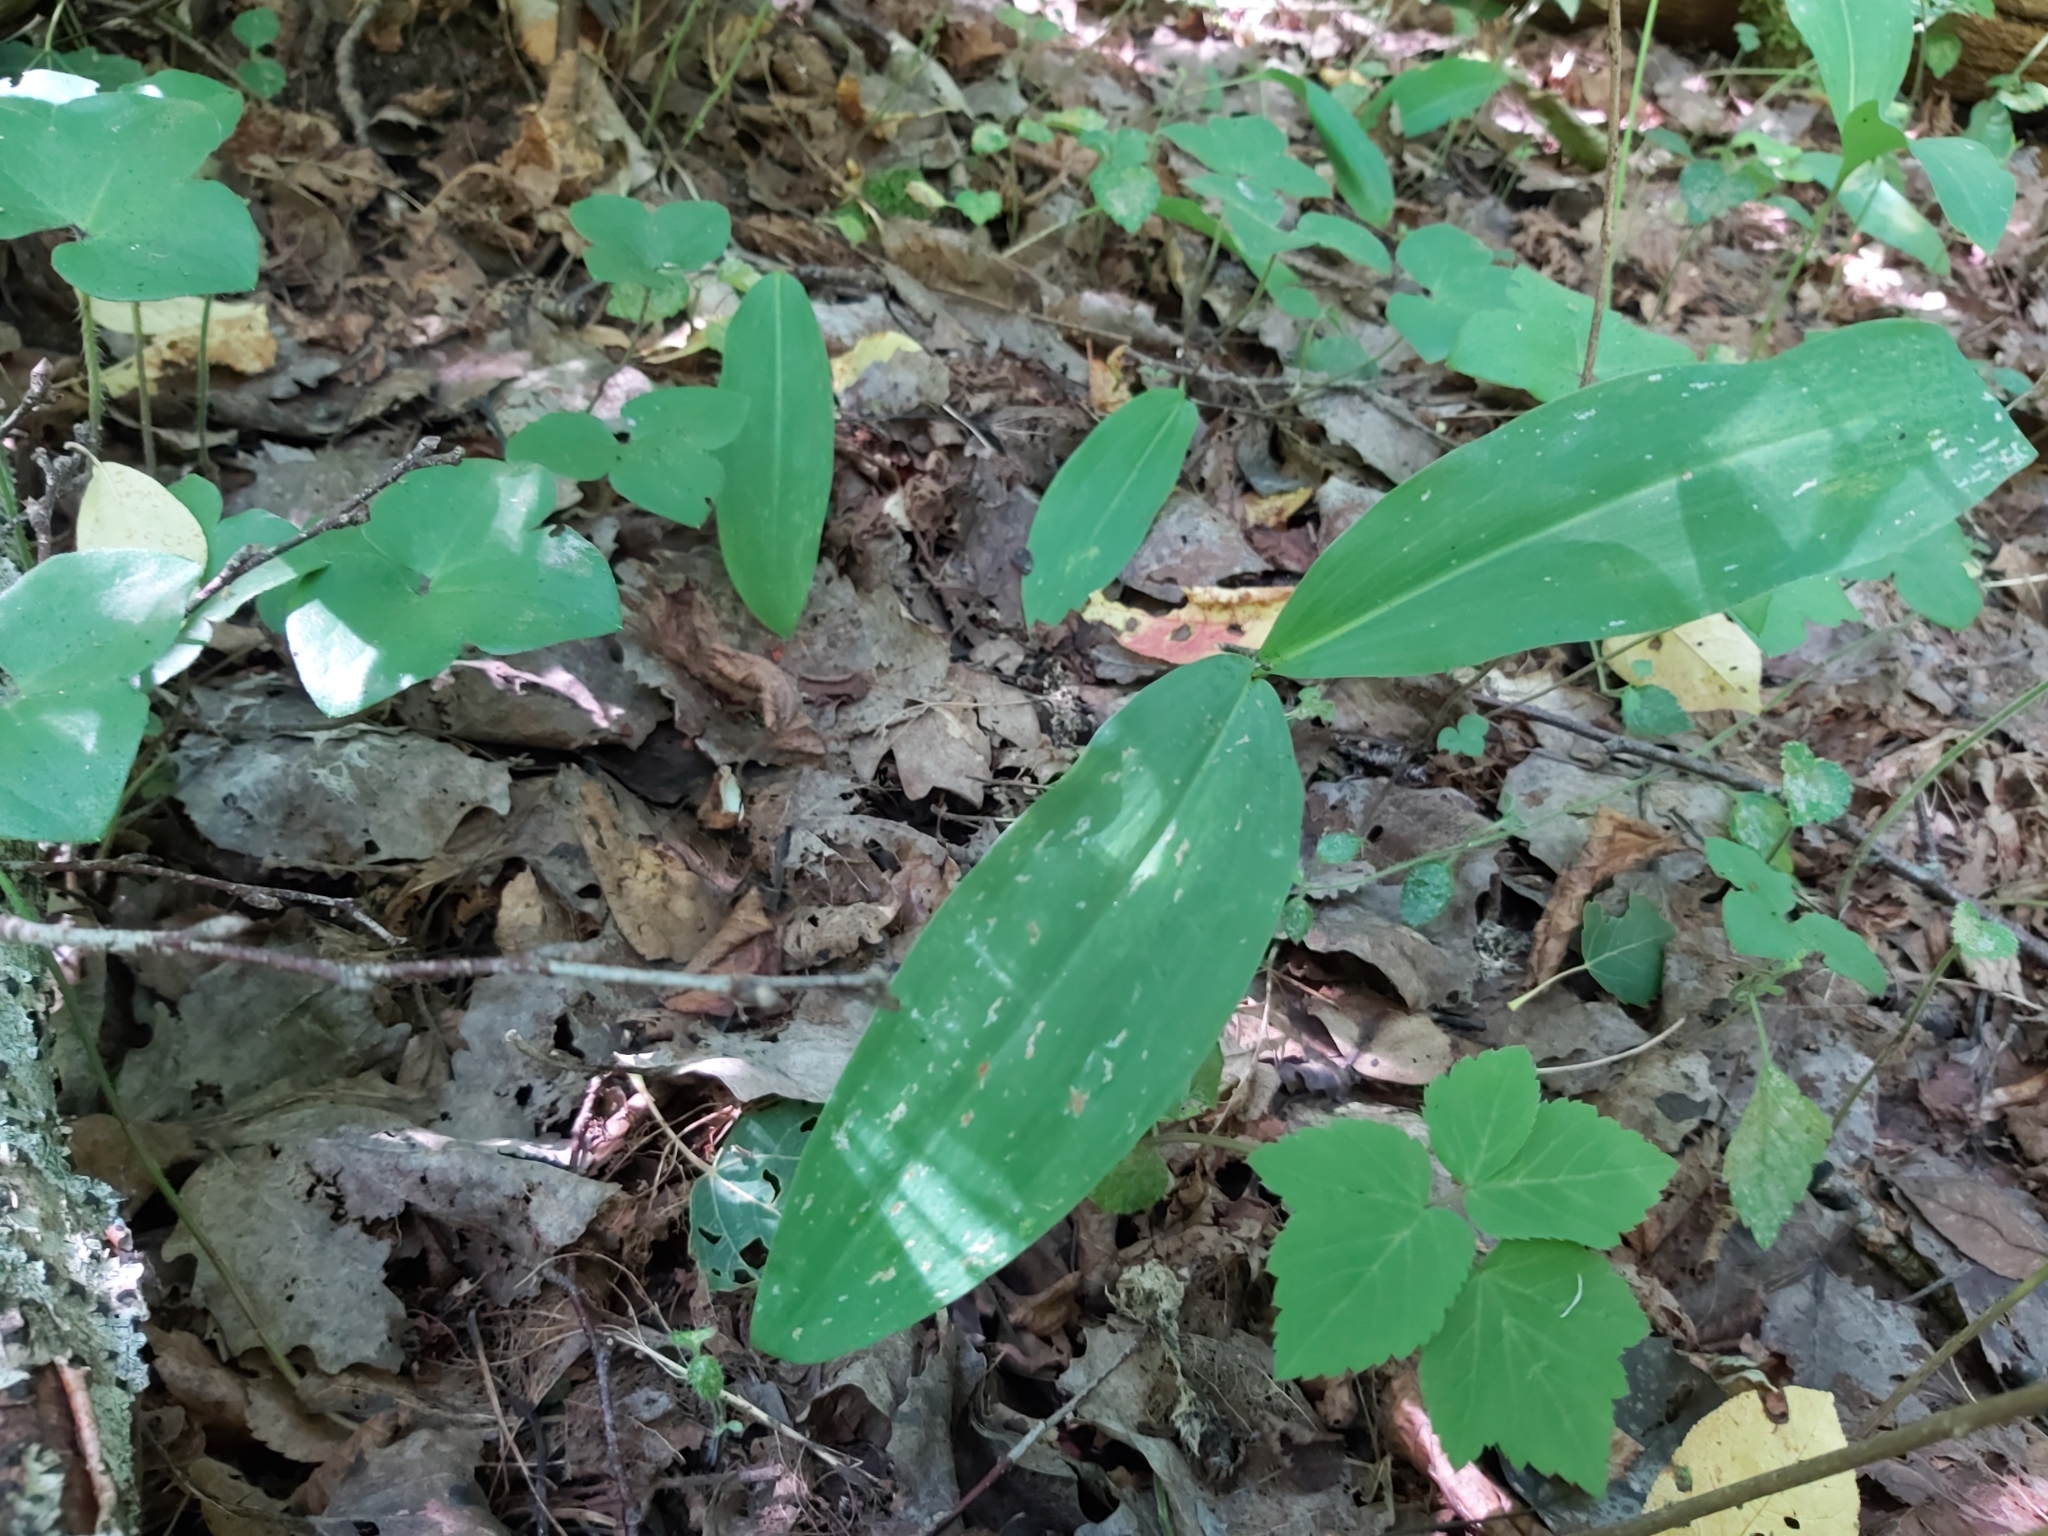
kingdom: Plantae
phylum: Tracheophyta
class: Liliopsida
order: Asparagales
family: Asparagaceae
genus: Convallaria
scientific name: Convallaria majalis
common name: Lily-of-the-valley
